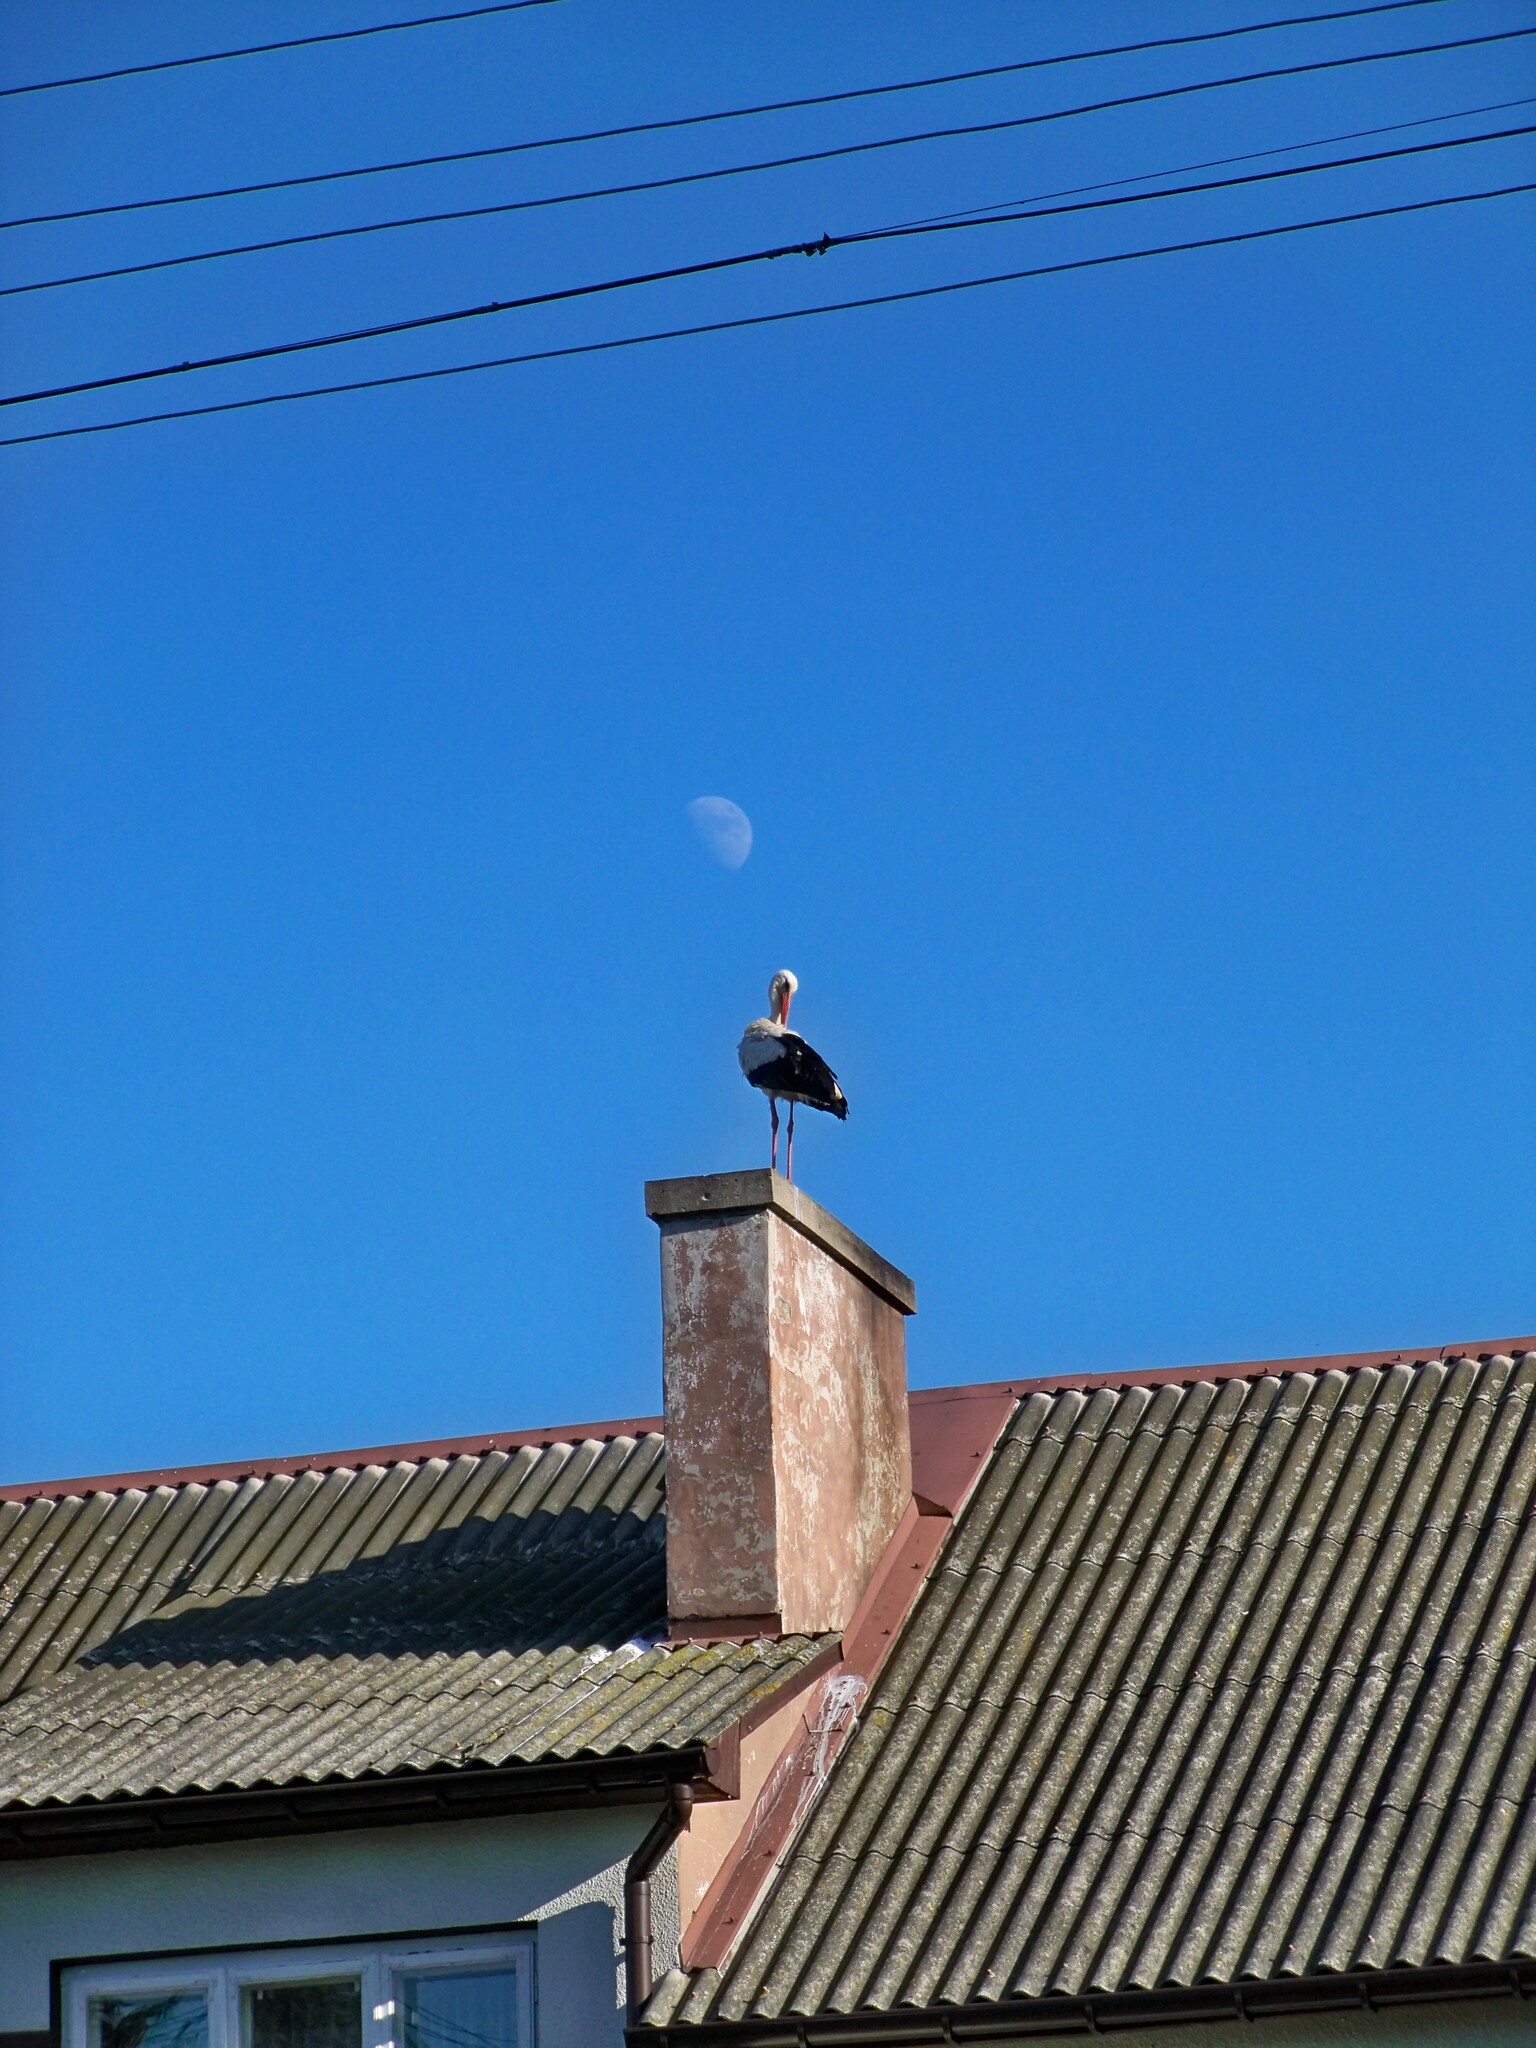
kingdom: Animalia
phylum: Chordata
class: Aves
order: Ciconiiformes
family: Ciconiidae
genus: Ciconia
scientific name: Ciconia ciconia
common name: White stork
